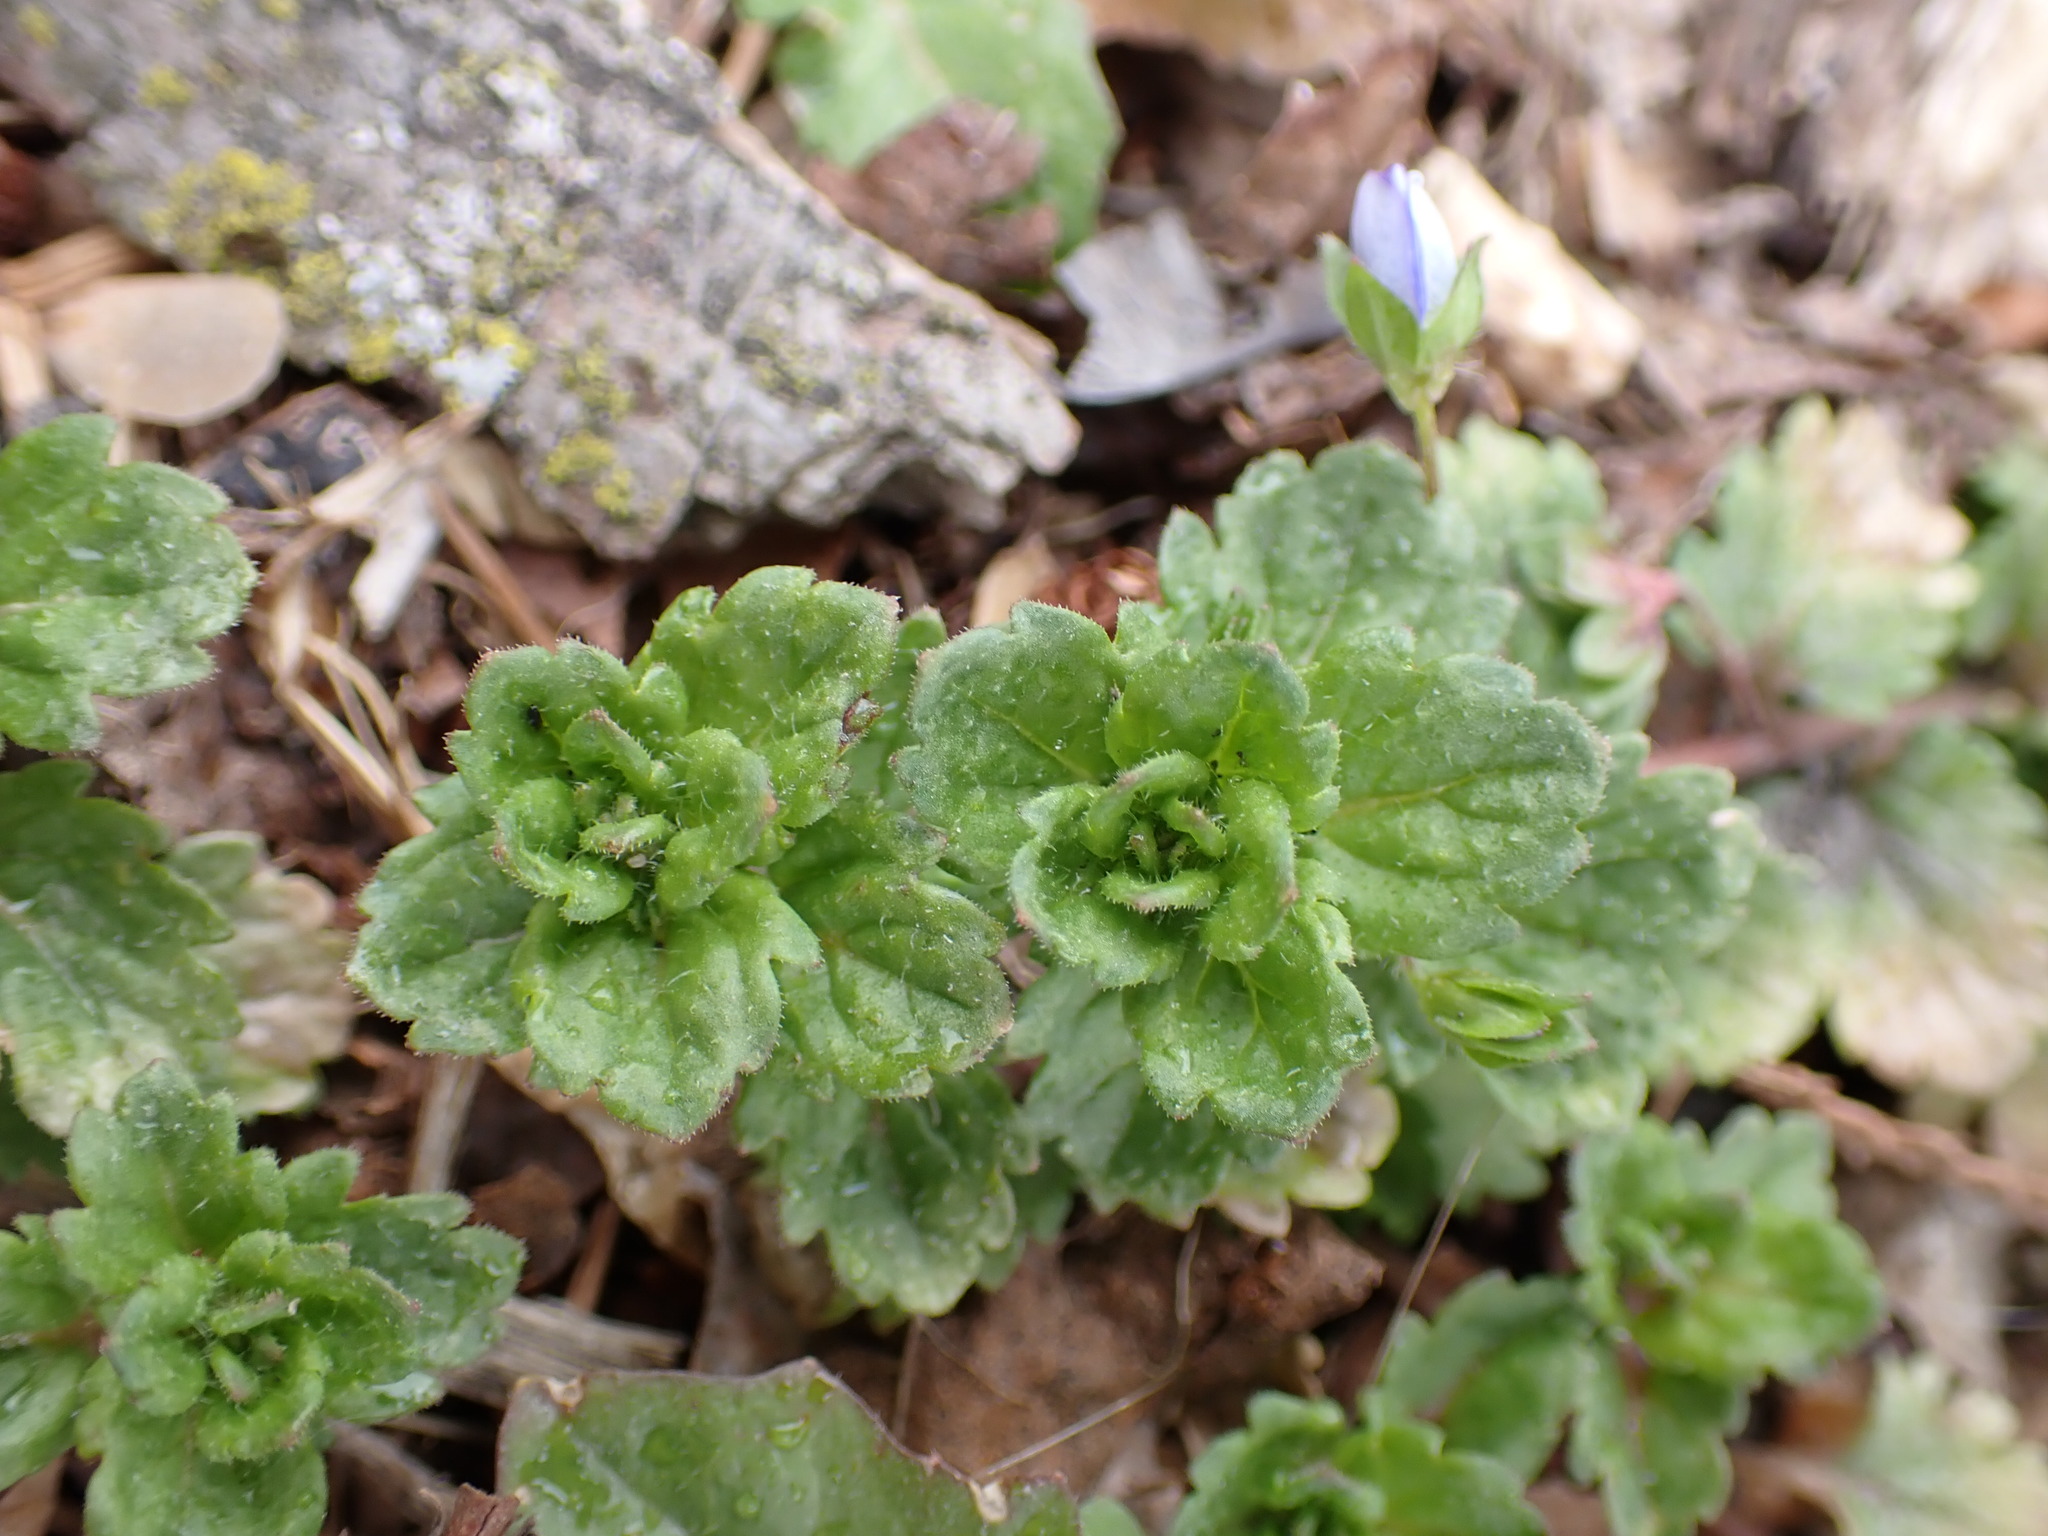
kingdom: Plantae
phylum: Tracheophyta
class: Magnoliopsida
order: Lamiales
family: Plantaginaceae
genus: Veronica
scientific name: Veronica persica
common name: Common field-speedwell
